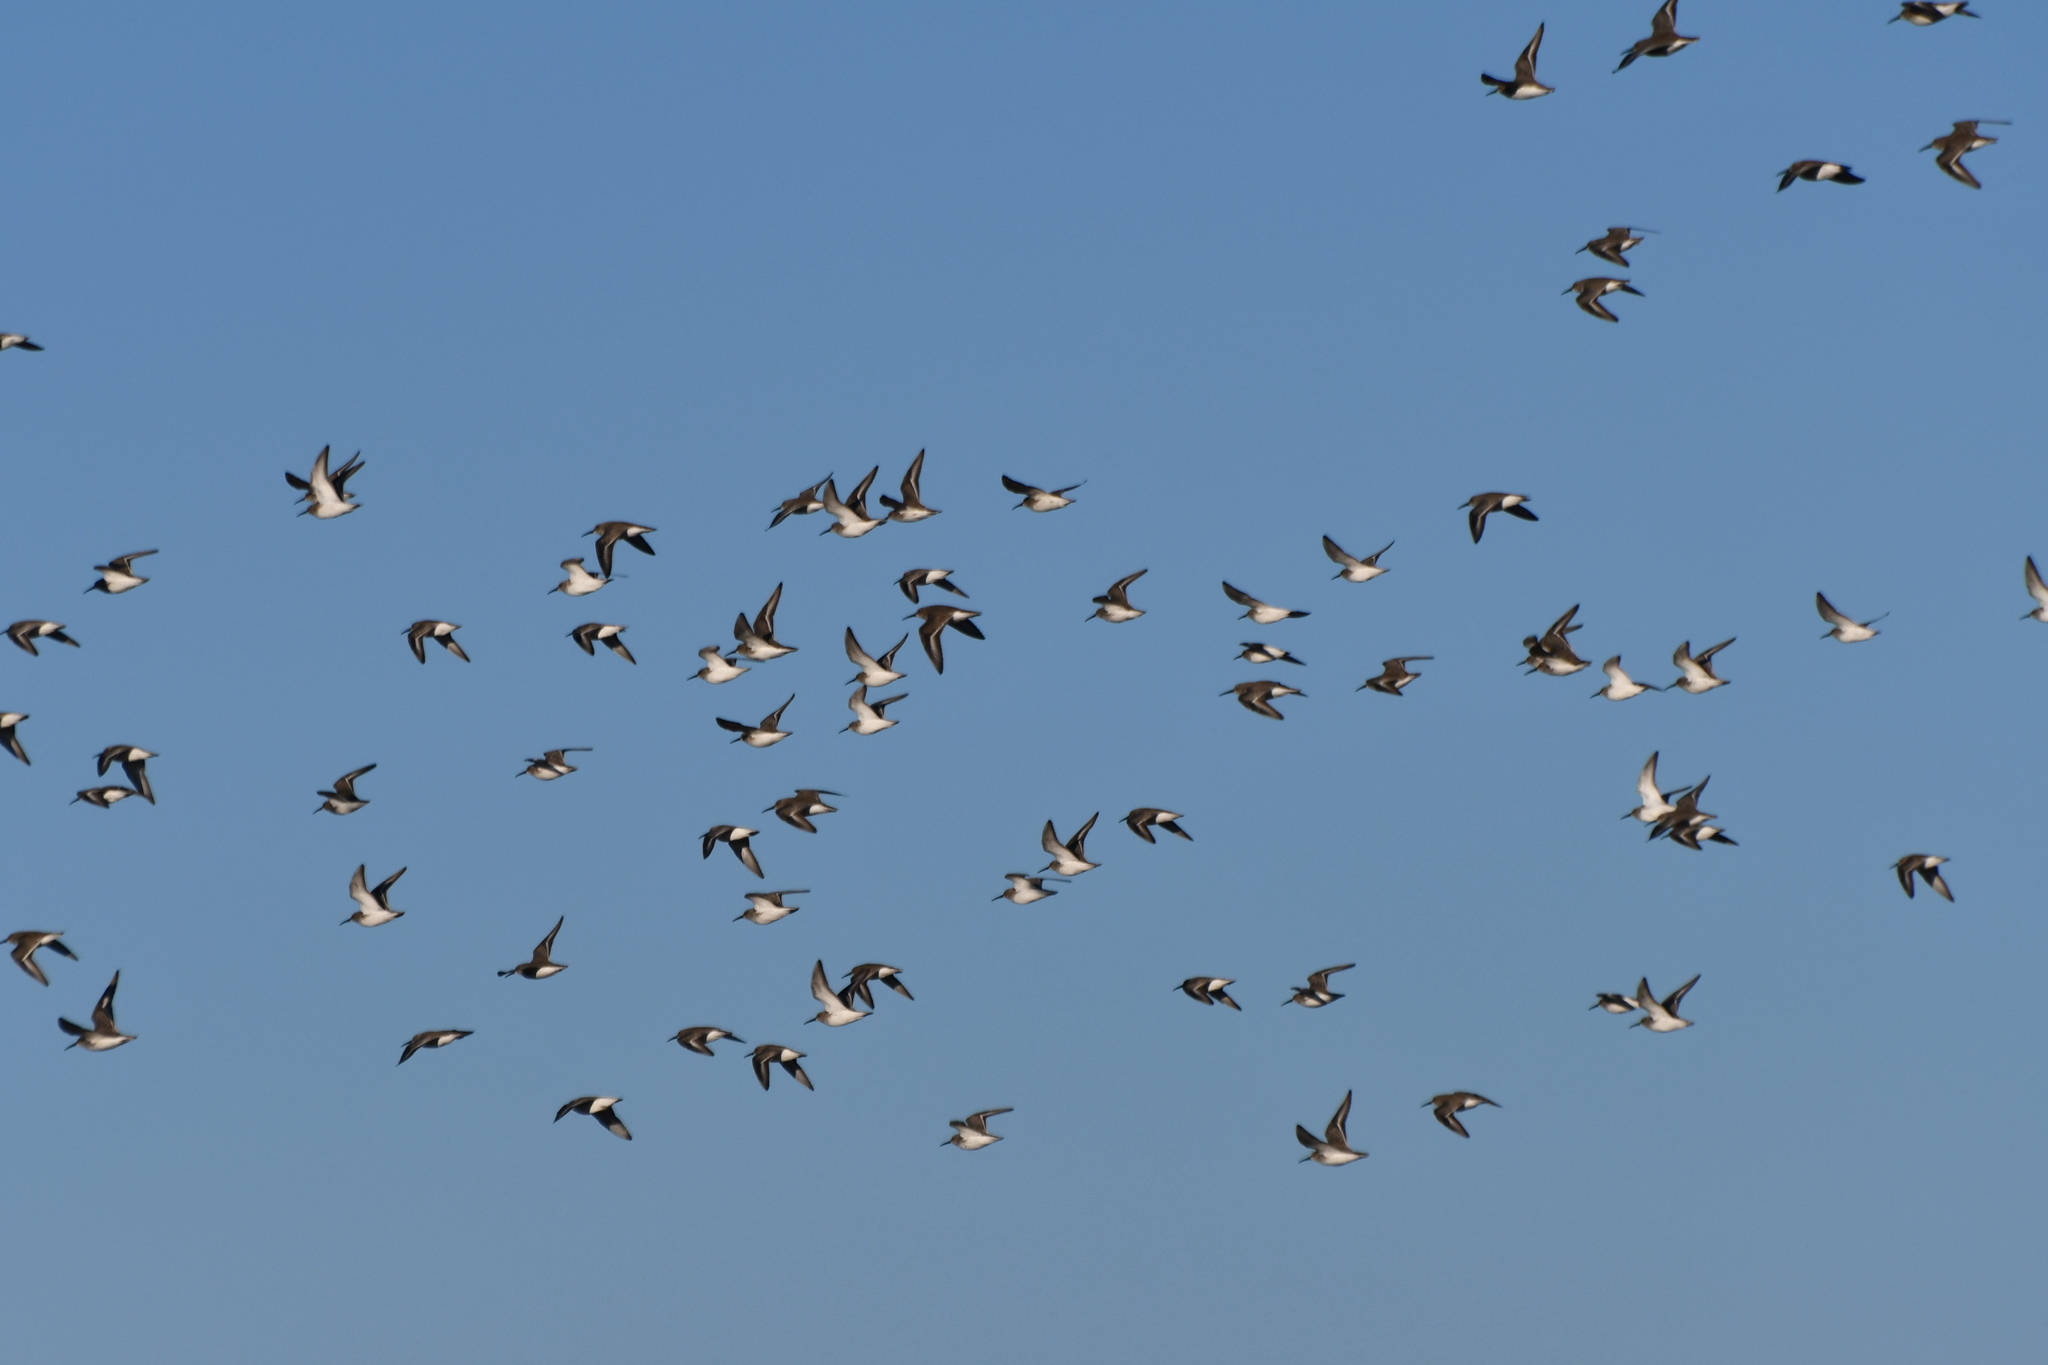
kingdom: Animalia
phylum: Chordata
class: Aves
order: Charadriiformes
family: Scolopacidae
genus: Calidris
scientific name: Calidris alpina
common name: Dunlin
